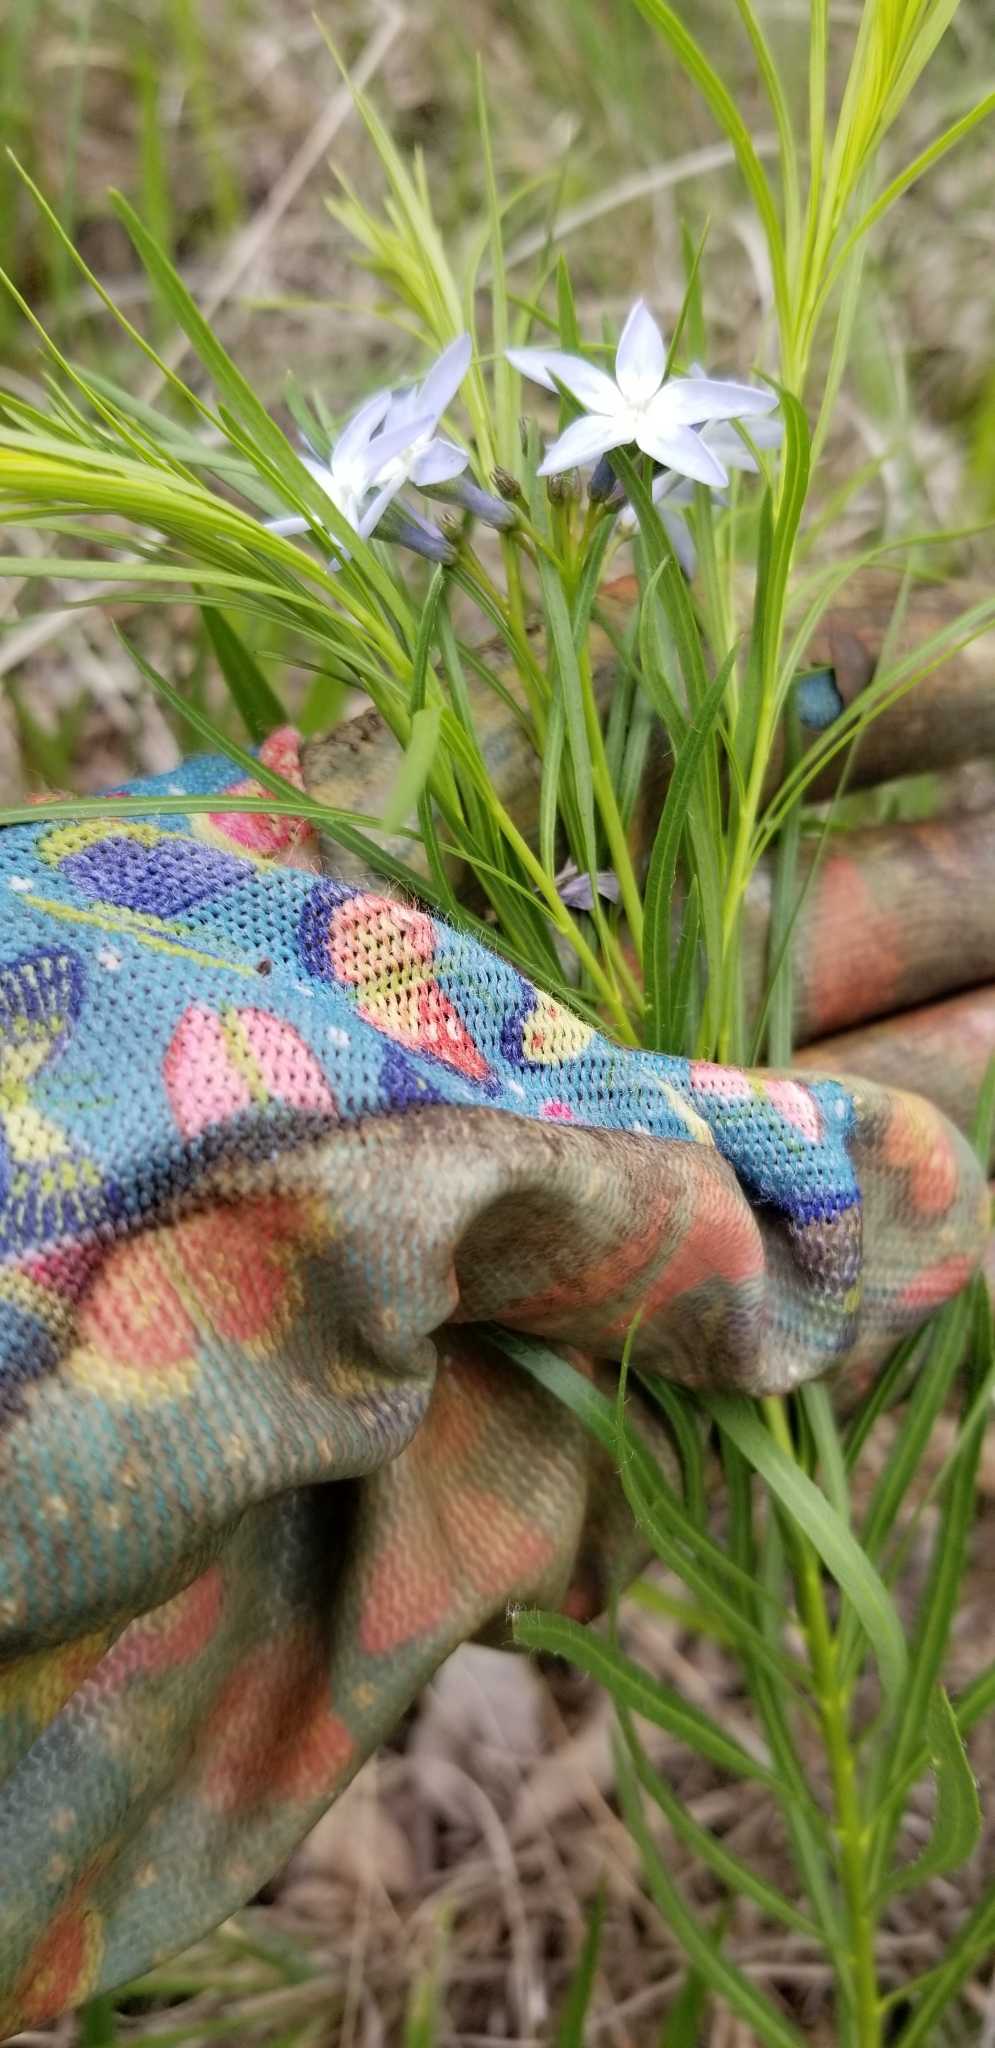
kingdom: Plantae
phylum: Tracheophyta
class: Magnoliopsida
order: Gentianales
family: Apocynaceae
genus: Amsonia
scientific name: Amsonia ciliata
